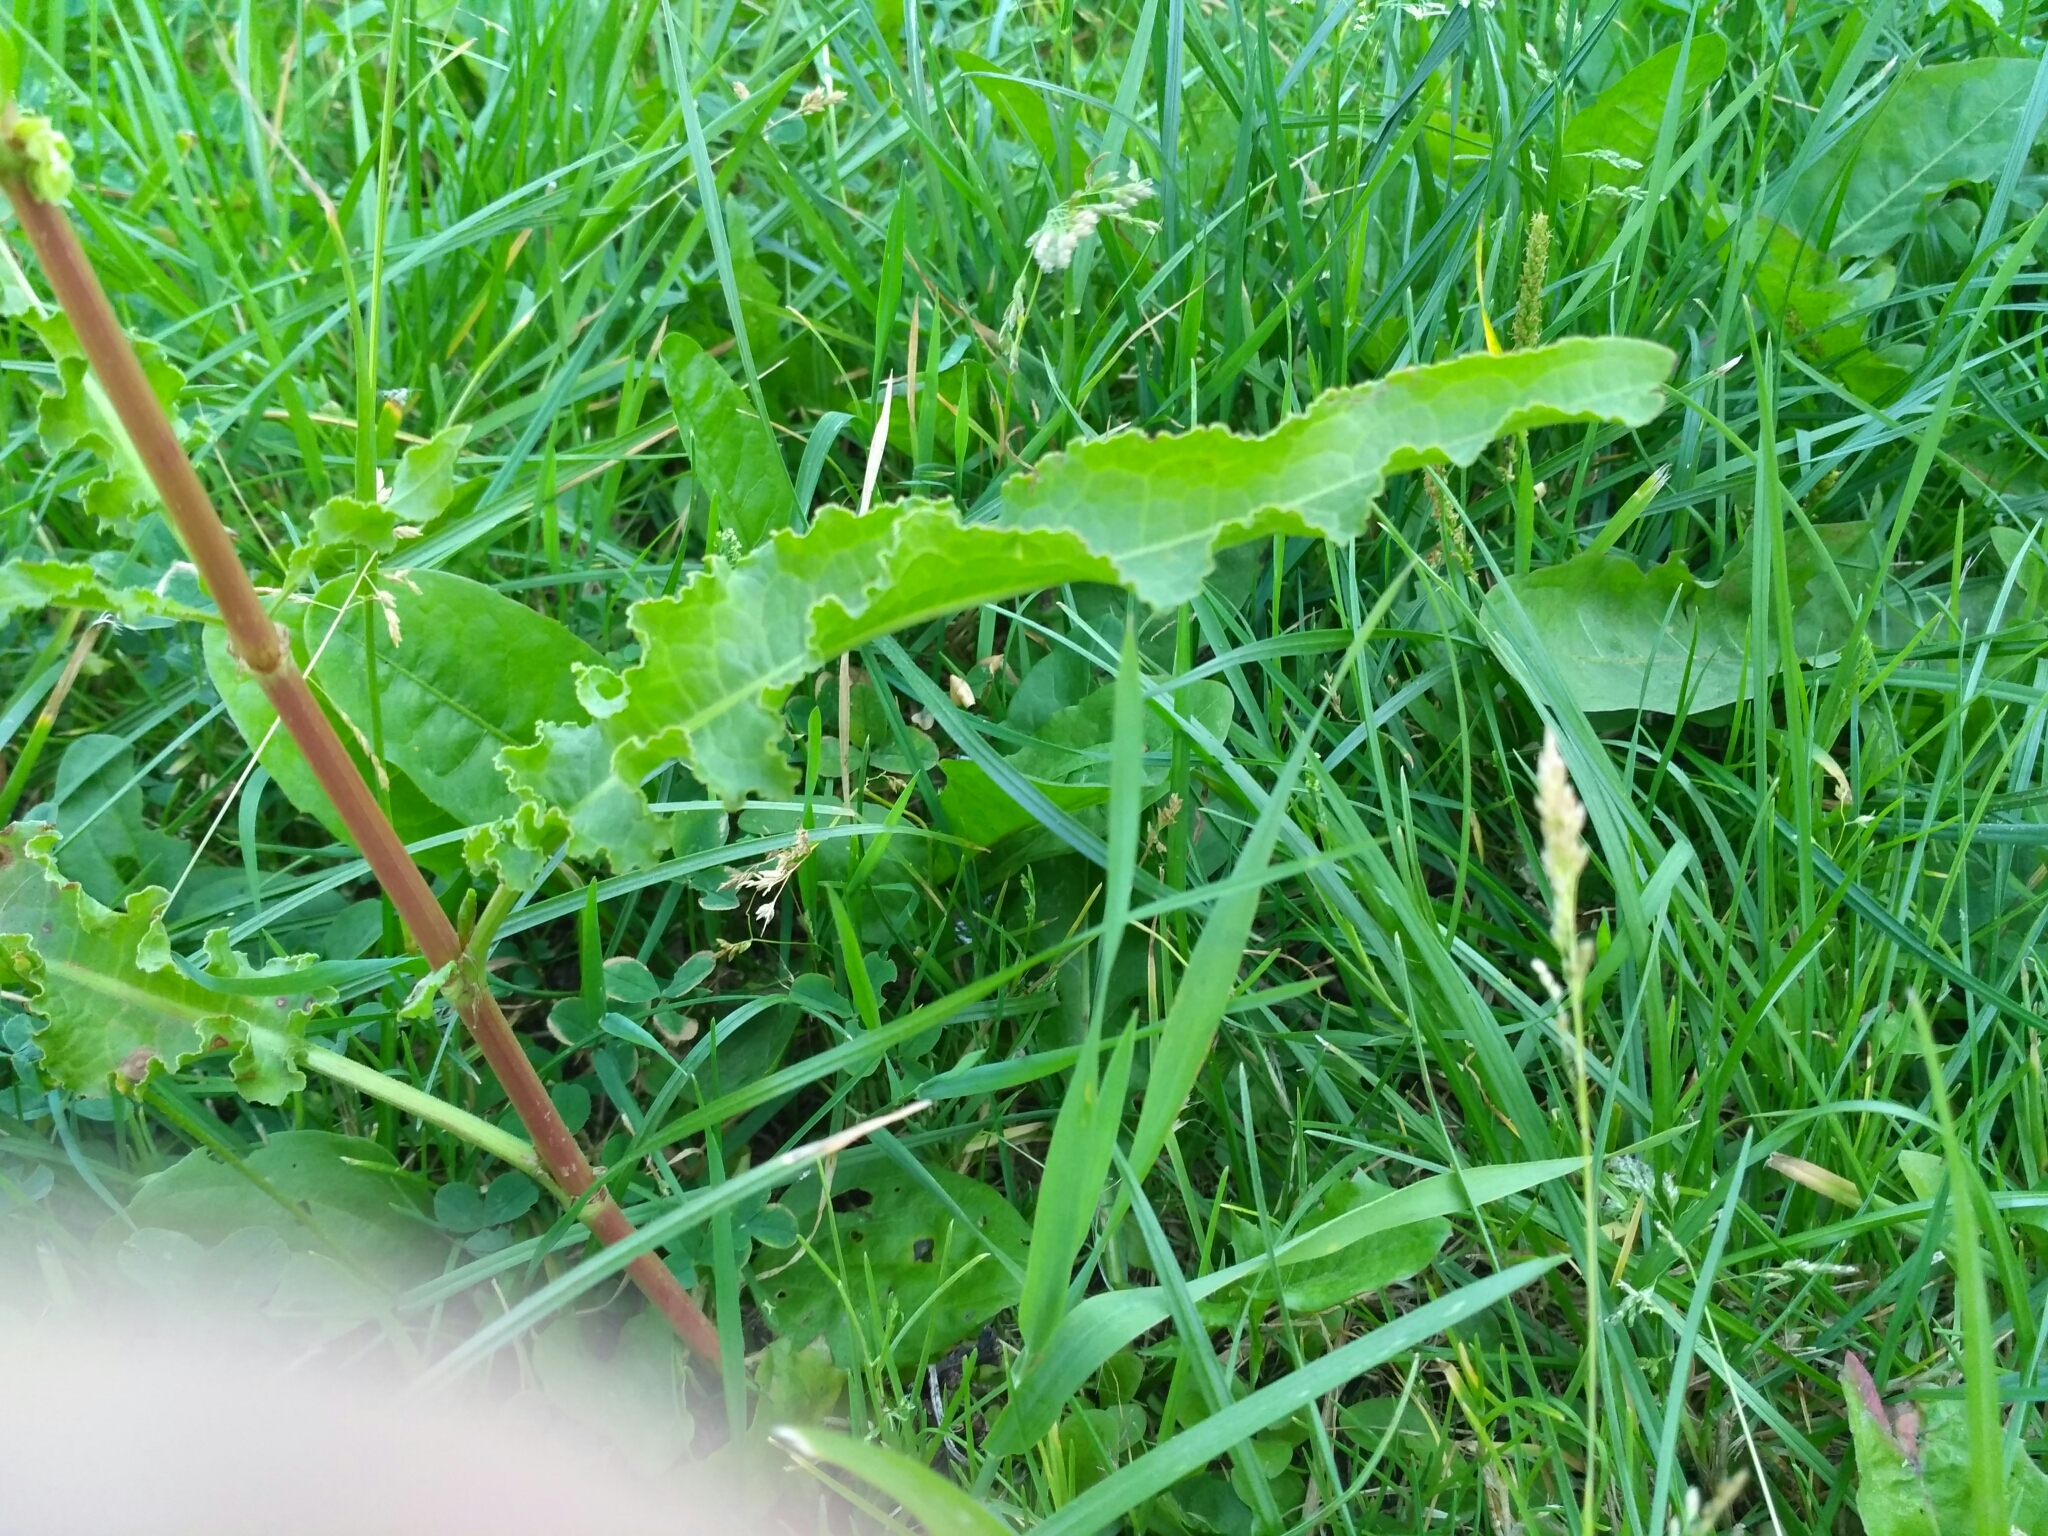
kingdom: Plantae
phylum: Tracheophyta
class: Magnoliopsida
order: Caryophyllales
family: Polygonaceae
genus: Rumex
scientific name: Rumex crispus
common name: Curled dock
